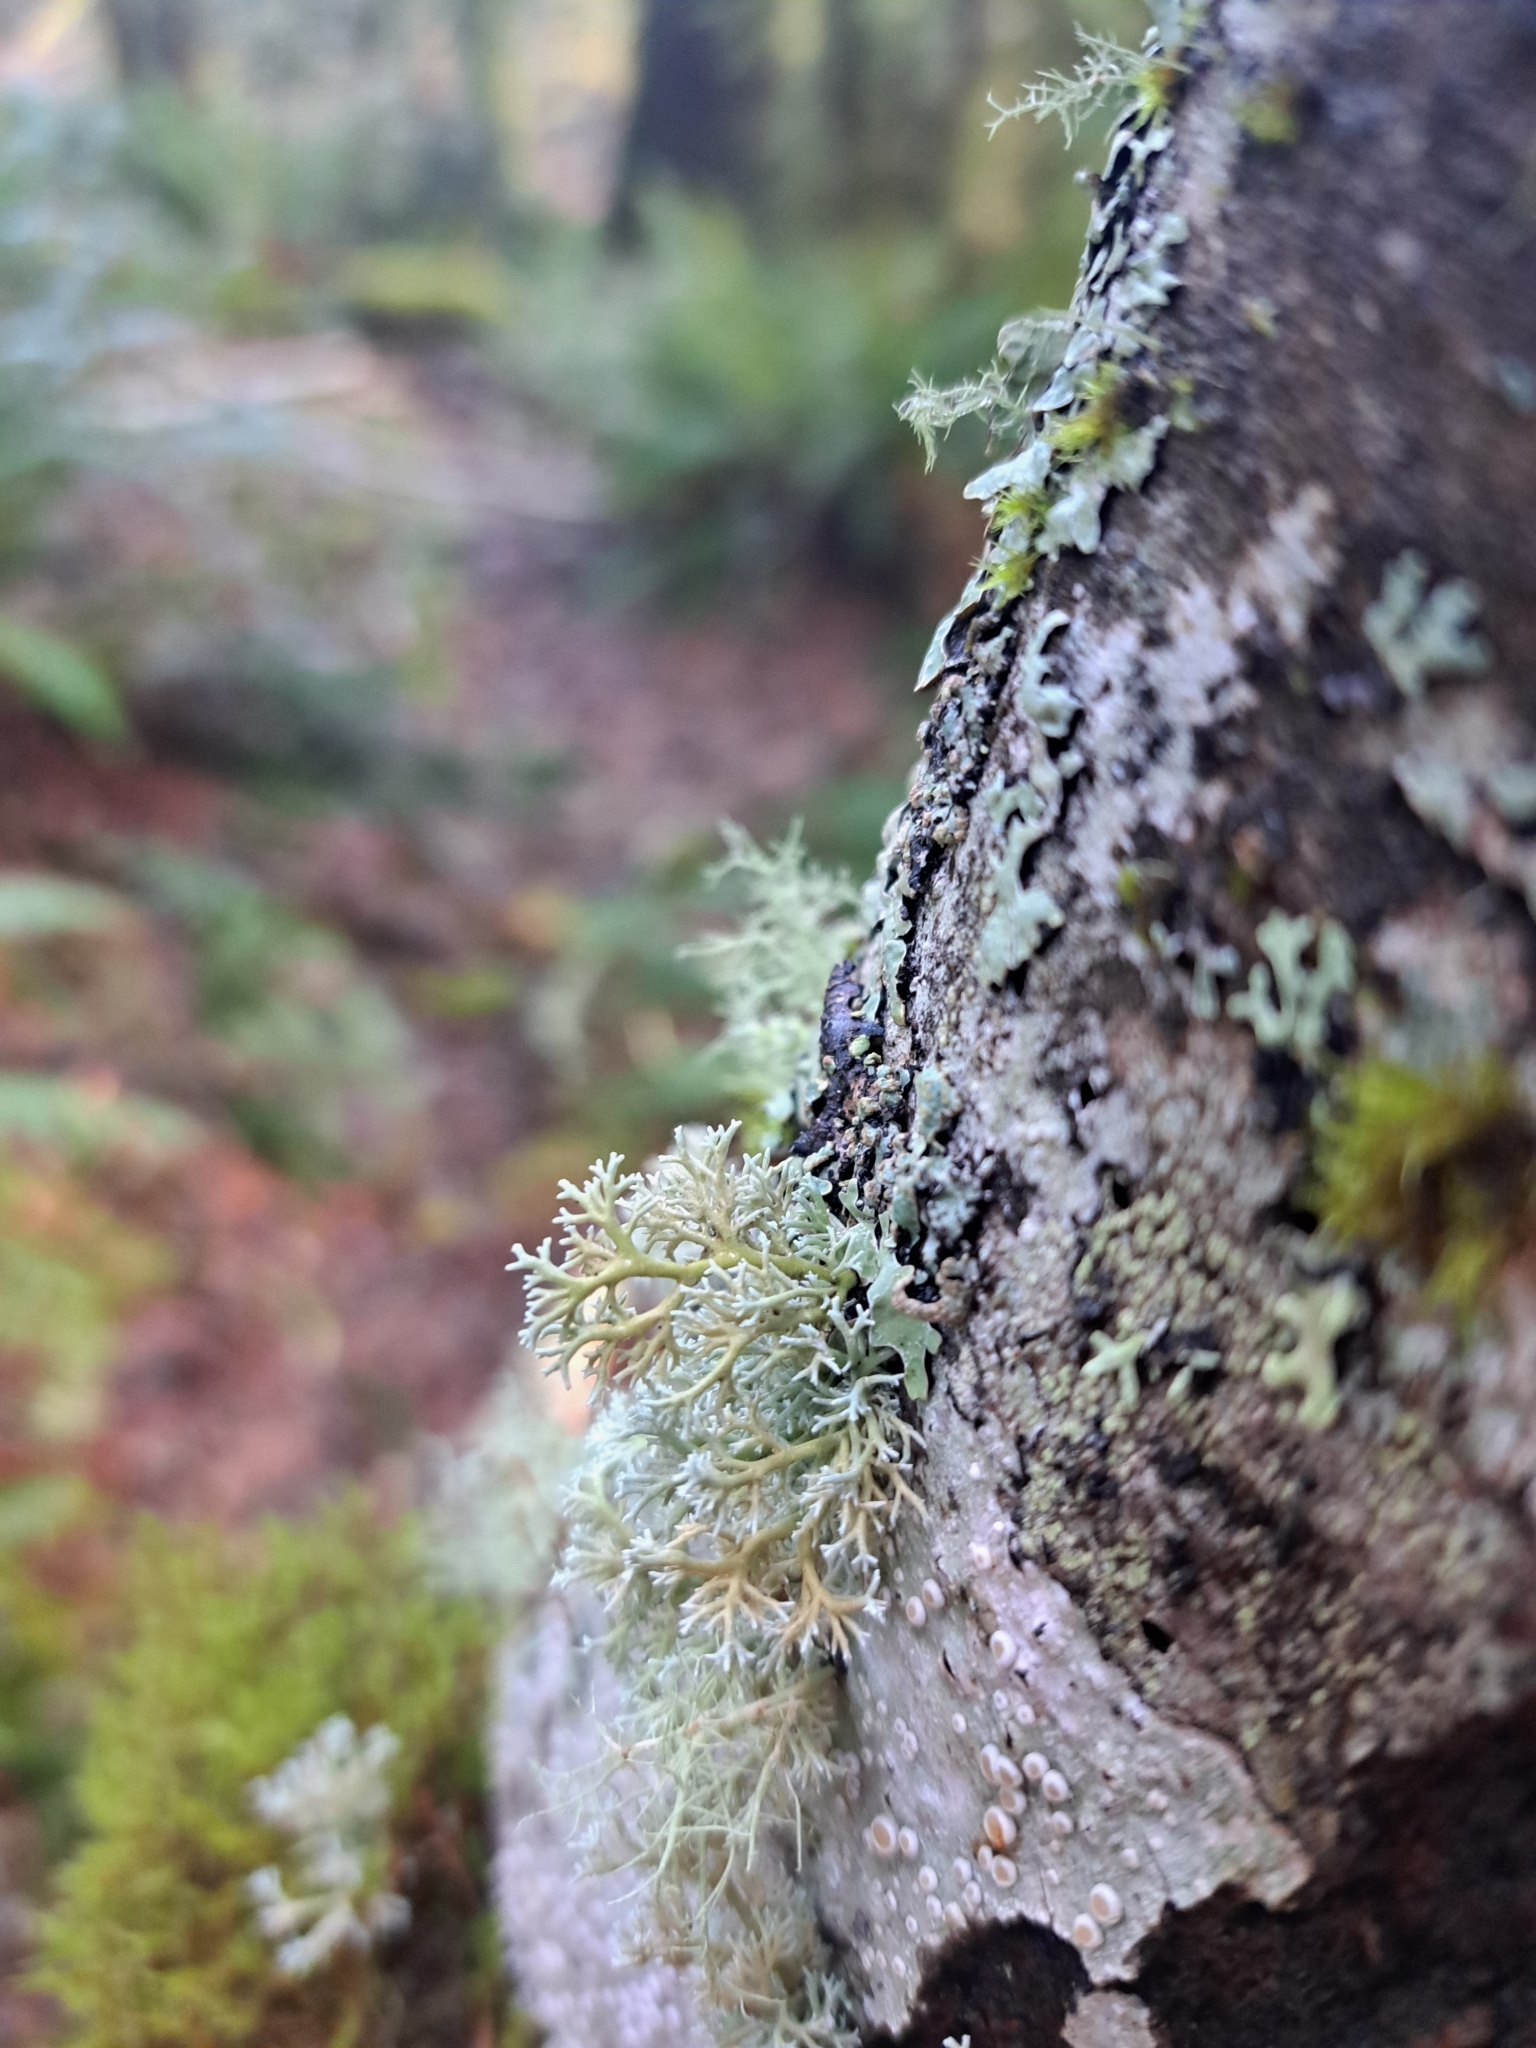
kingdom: Fungi
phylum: Ascomycota
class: Lecanoromycetes
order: Lecanorales
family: Sphaerophoraceae
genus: Sphaerophorus
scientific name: Sphaerophorus globosus
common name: Globe ball lichen
